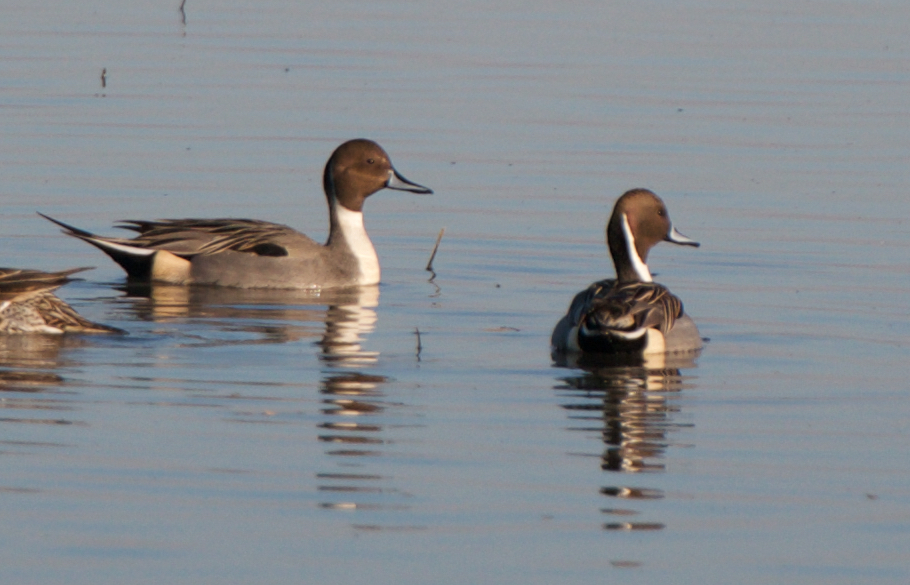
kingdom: Animalia
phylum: Chordata
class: Aves
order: Anseriformes
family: Anatidae
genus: Anas
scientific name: Anas acuta
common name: Northern pintail
